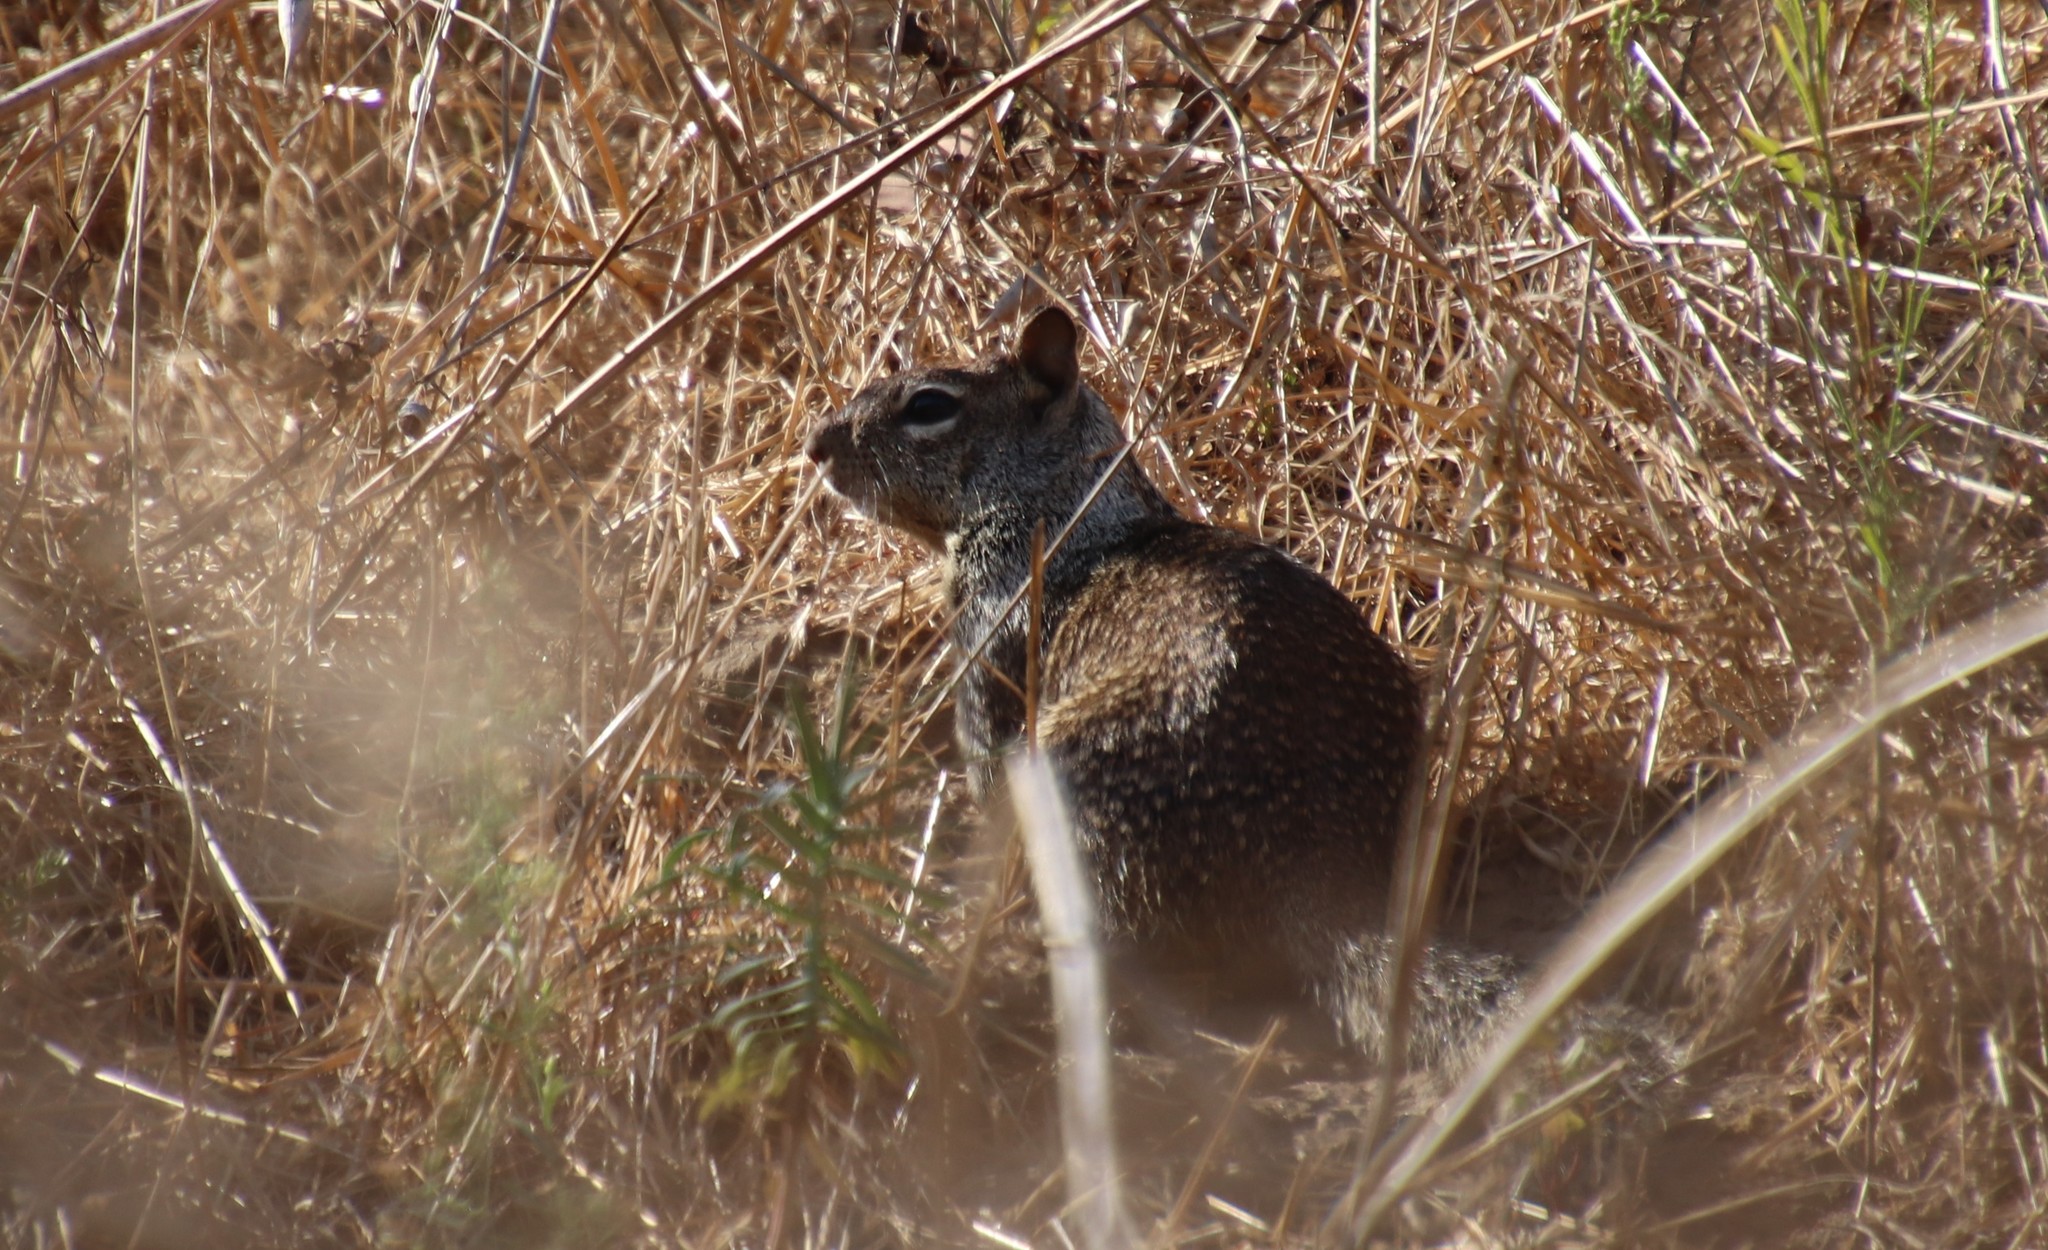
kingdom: Animalia
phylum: Chordata
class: Mammalia
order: Rodentia
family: Sciuridae
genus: Otospermophilus
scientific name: Otospermophilus beecheyi
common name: California ground squirrel
